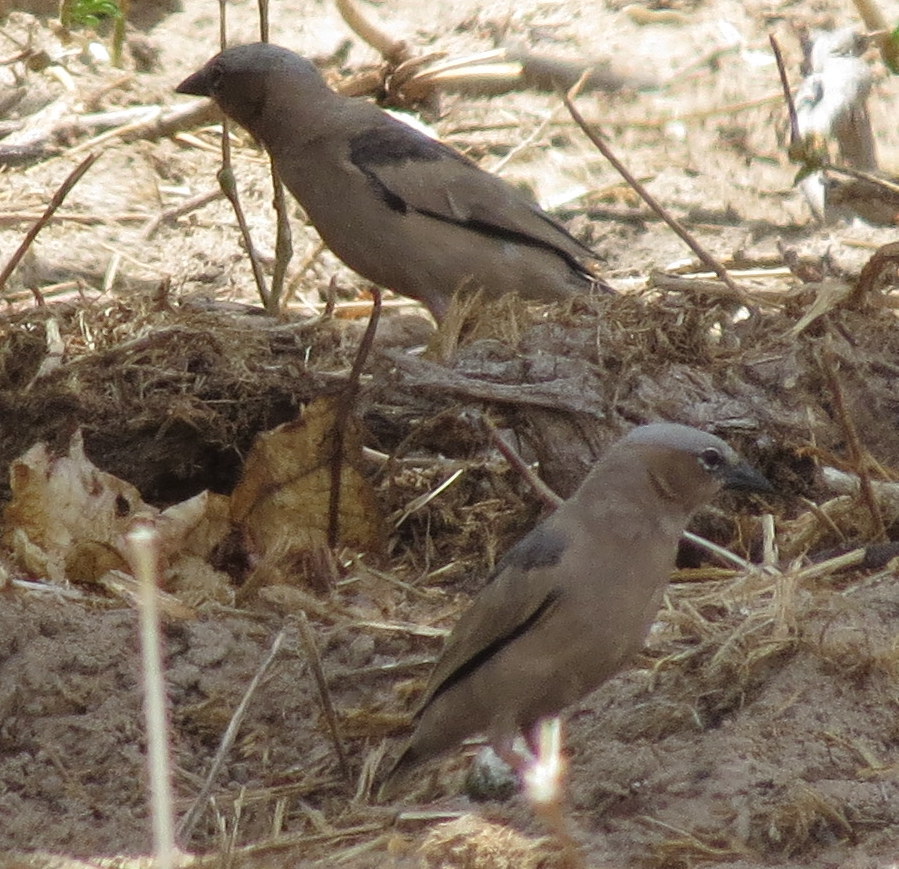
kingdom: Animalia
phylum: Chordata
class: Aves
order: Passeriformes
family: Passeridae
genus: Pseudonigrita
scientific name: Pseudonigrita arnaudi
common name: Grey-capped social weaver
